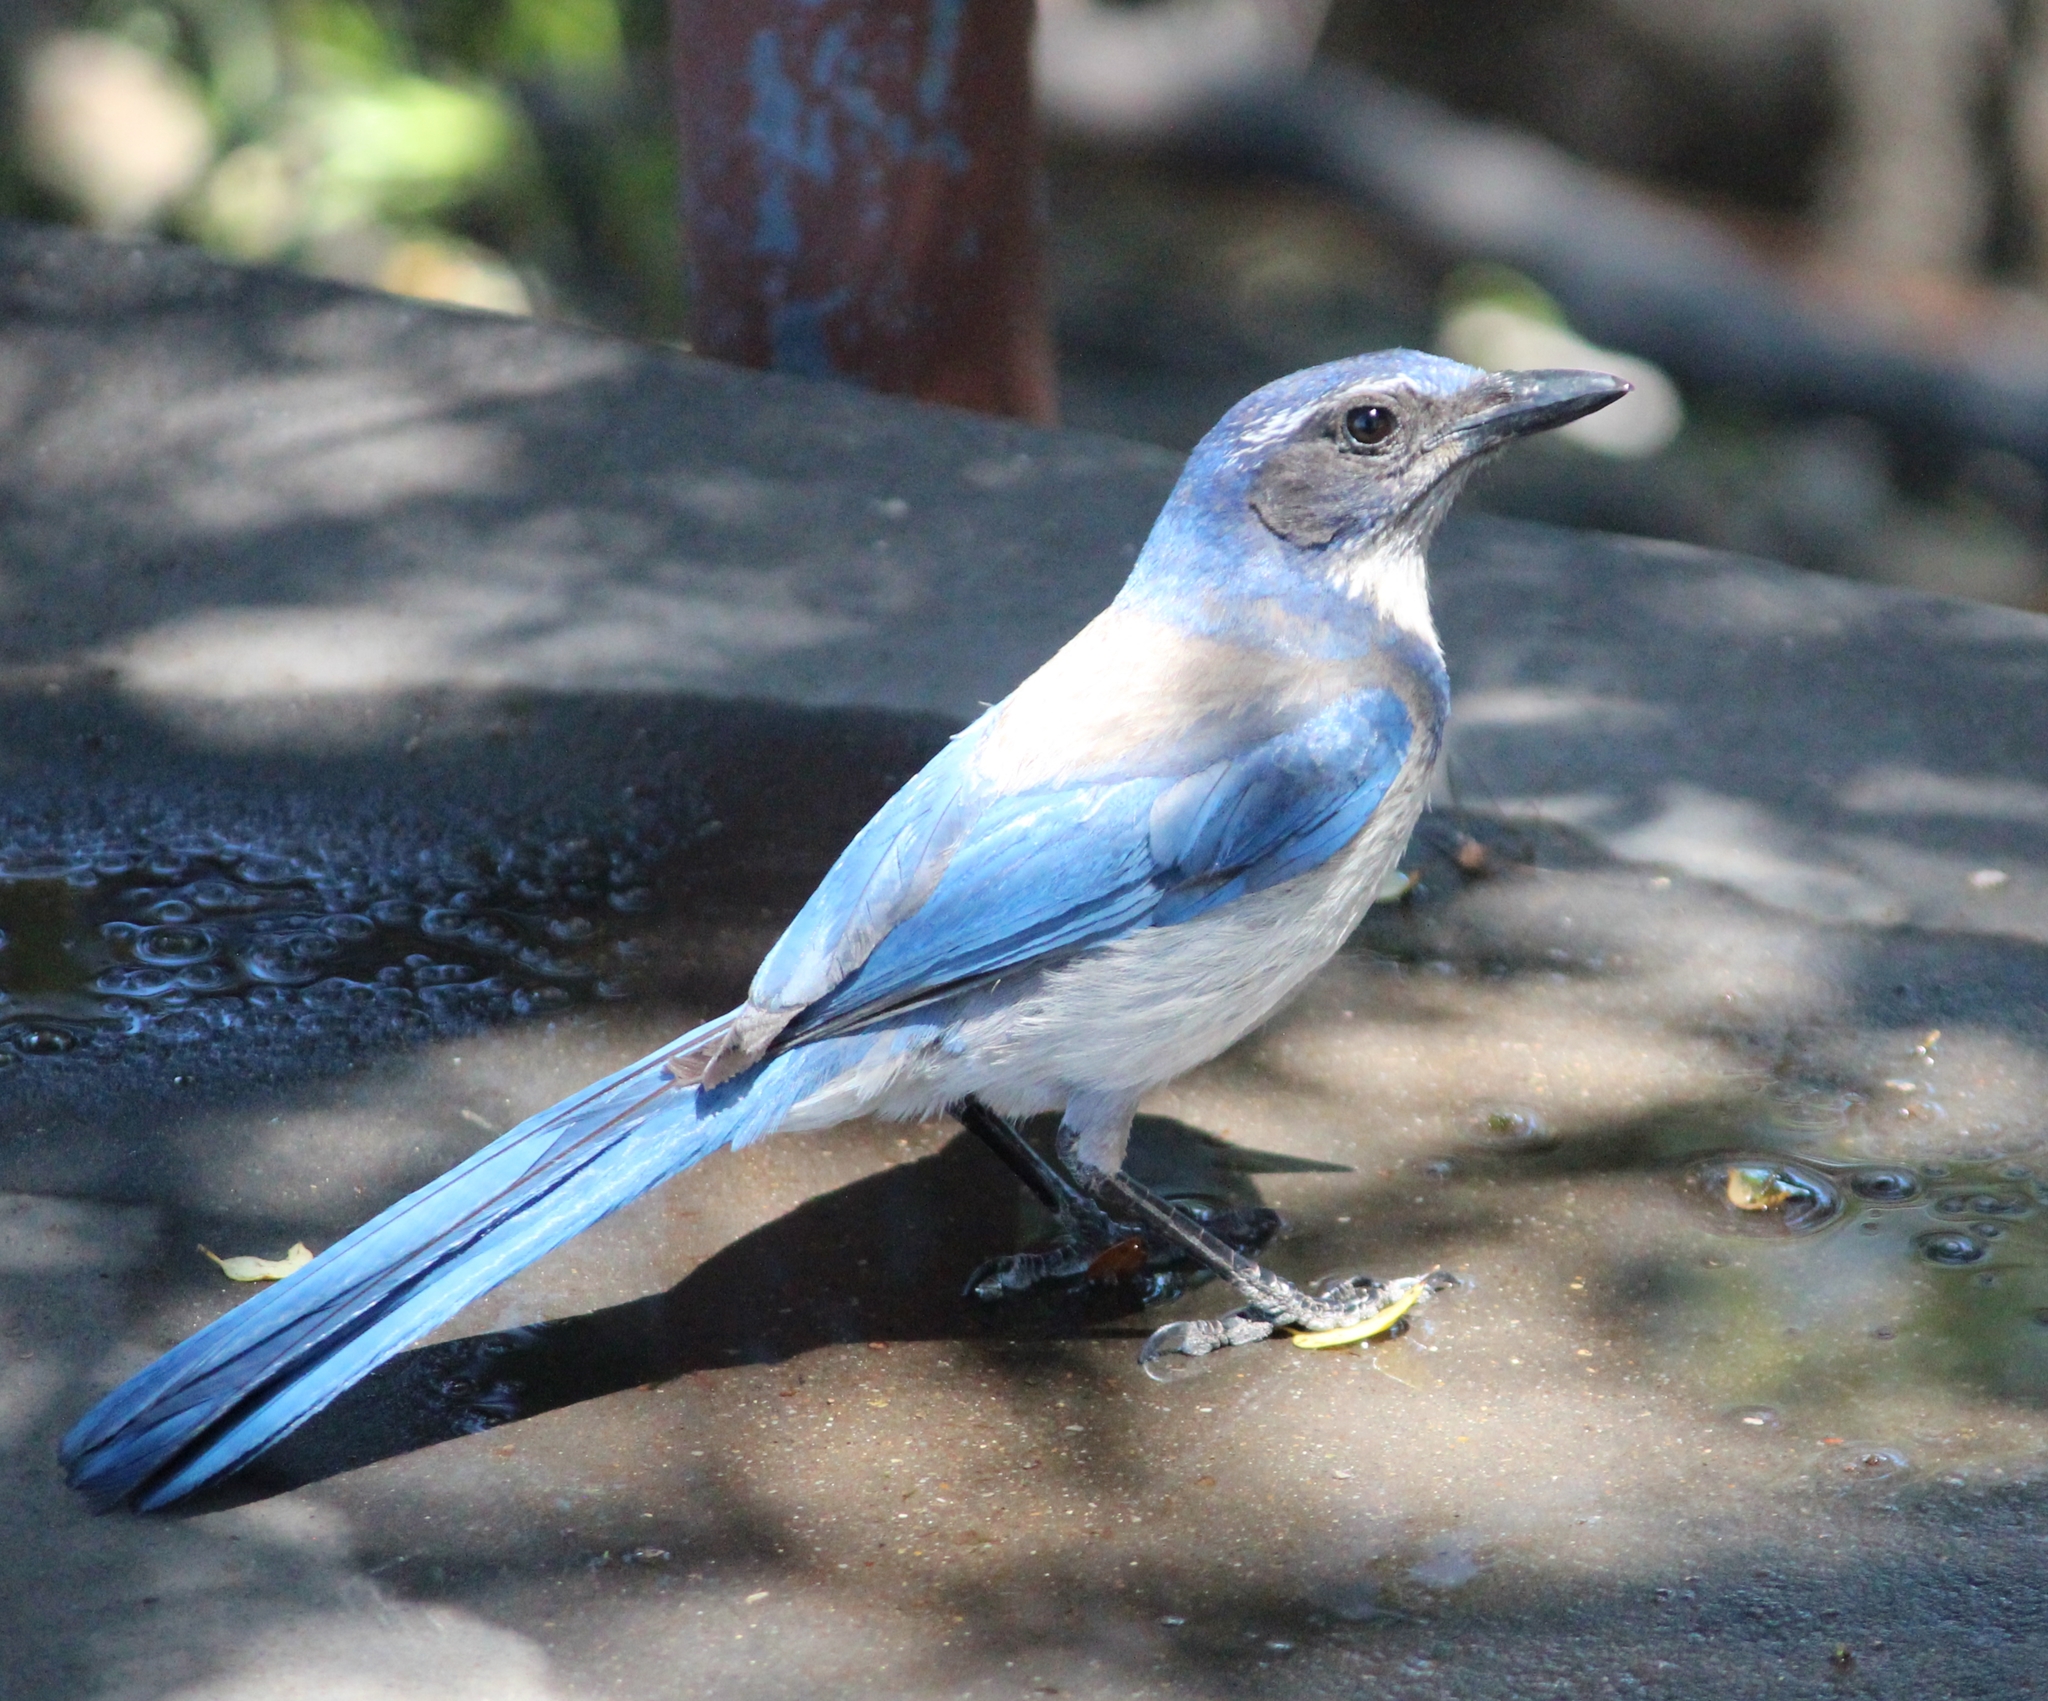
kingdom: Animalia
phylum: Chordata
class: Aves
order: Passeriformes
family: Corvidae
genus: Aphelocoma
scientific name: Aphelocoma californica
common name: California scrub-jay
